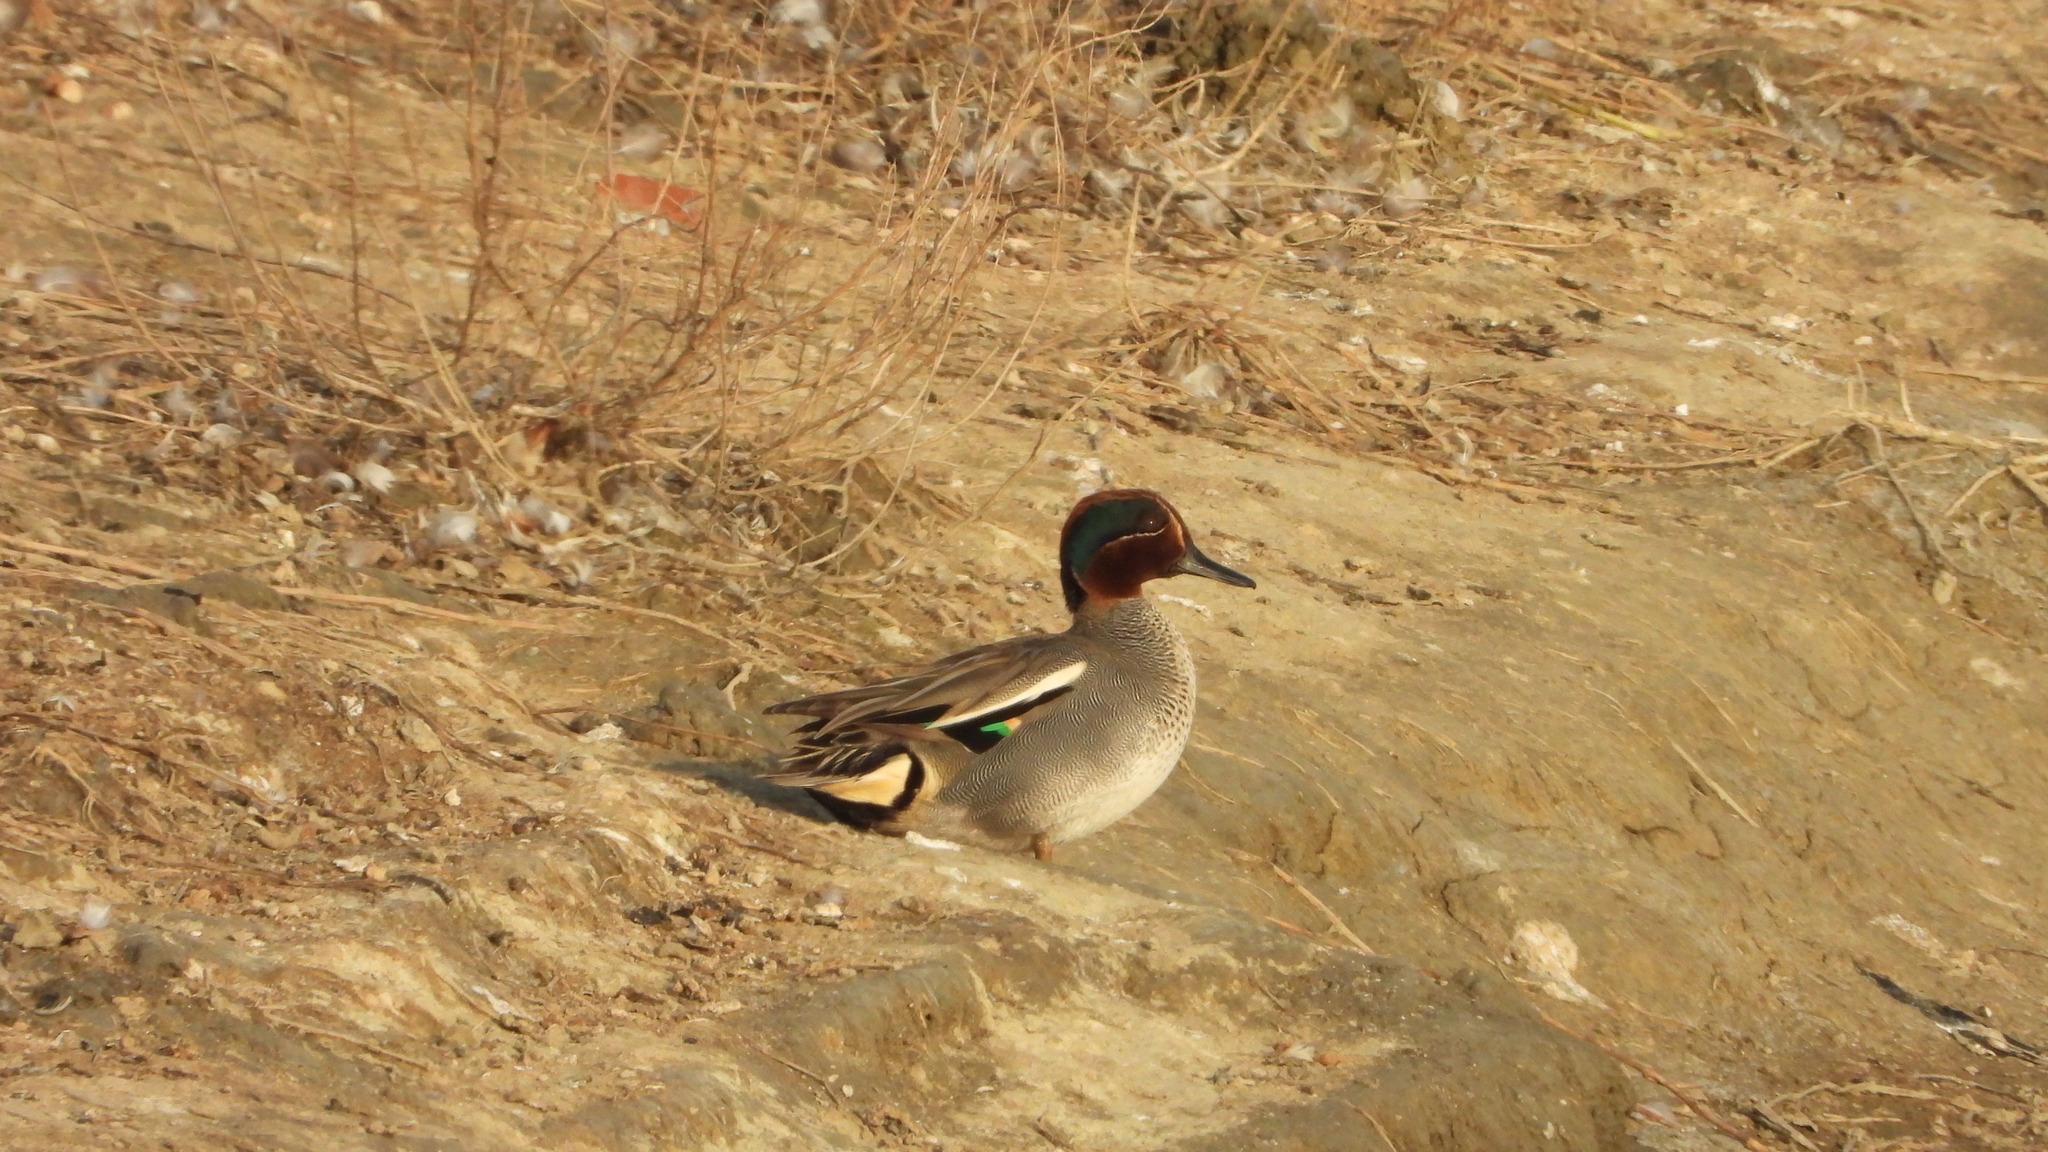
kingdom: Animalia
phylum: Chordata
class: Aves
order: Anseriformes
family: Anatidae
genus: Anas
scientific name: Anas crecca
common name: Eurasian teal
